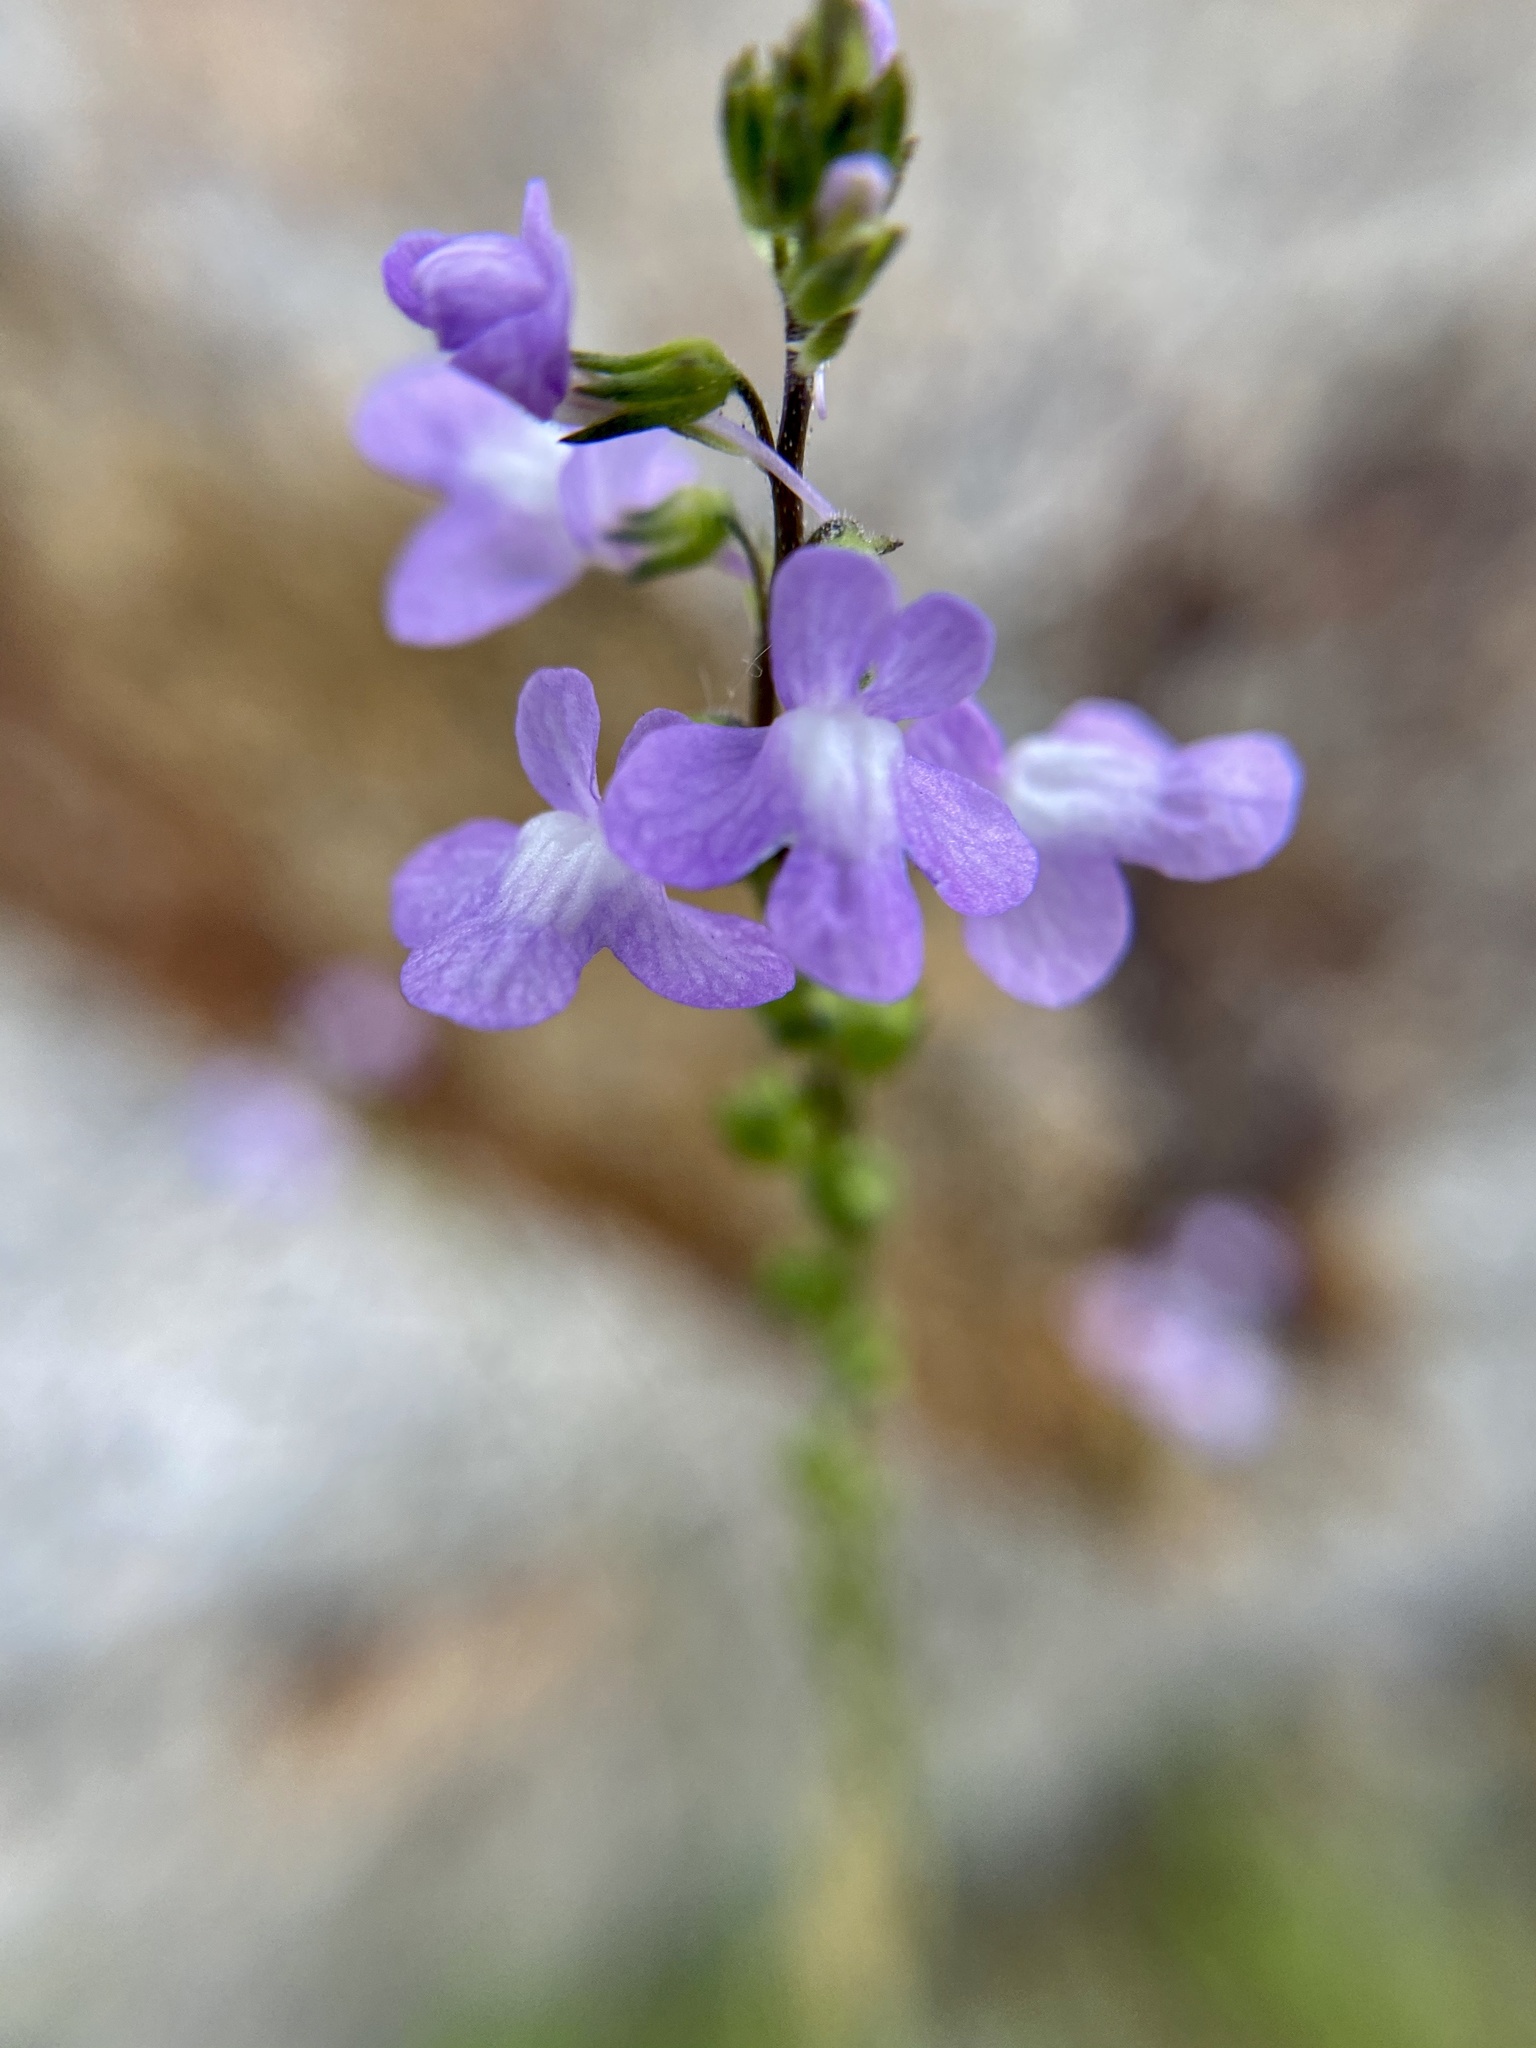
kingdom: Plantae
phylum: Tracheophyta
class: Magnoliopsida
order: Lamiales
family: Plantaginaceae
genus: Nuttallanthus
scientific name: Nuttallanthus canadensis
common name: Blue toadflax
